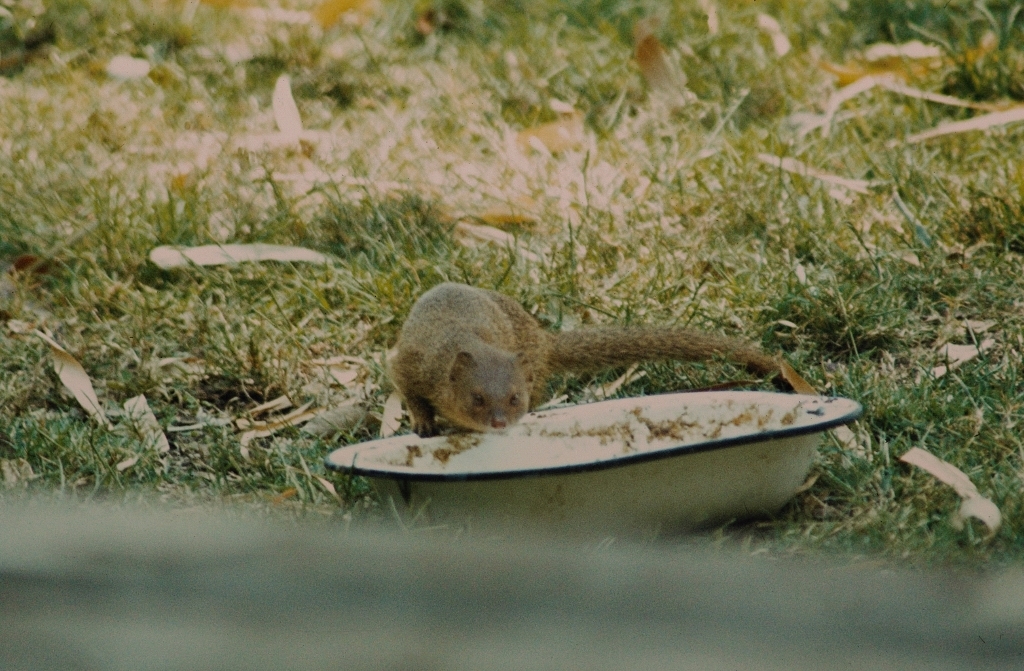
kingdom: Animalia
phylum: Chordata
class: Mammalia
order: Carnivora
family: Herpestidae
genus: Galerella
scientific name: Galerella sanguinea
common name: Slender mongoose
